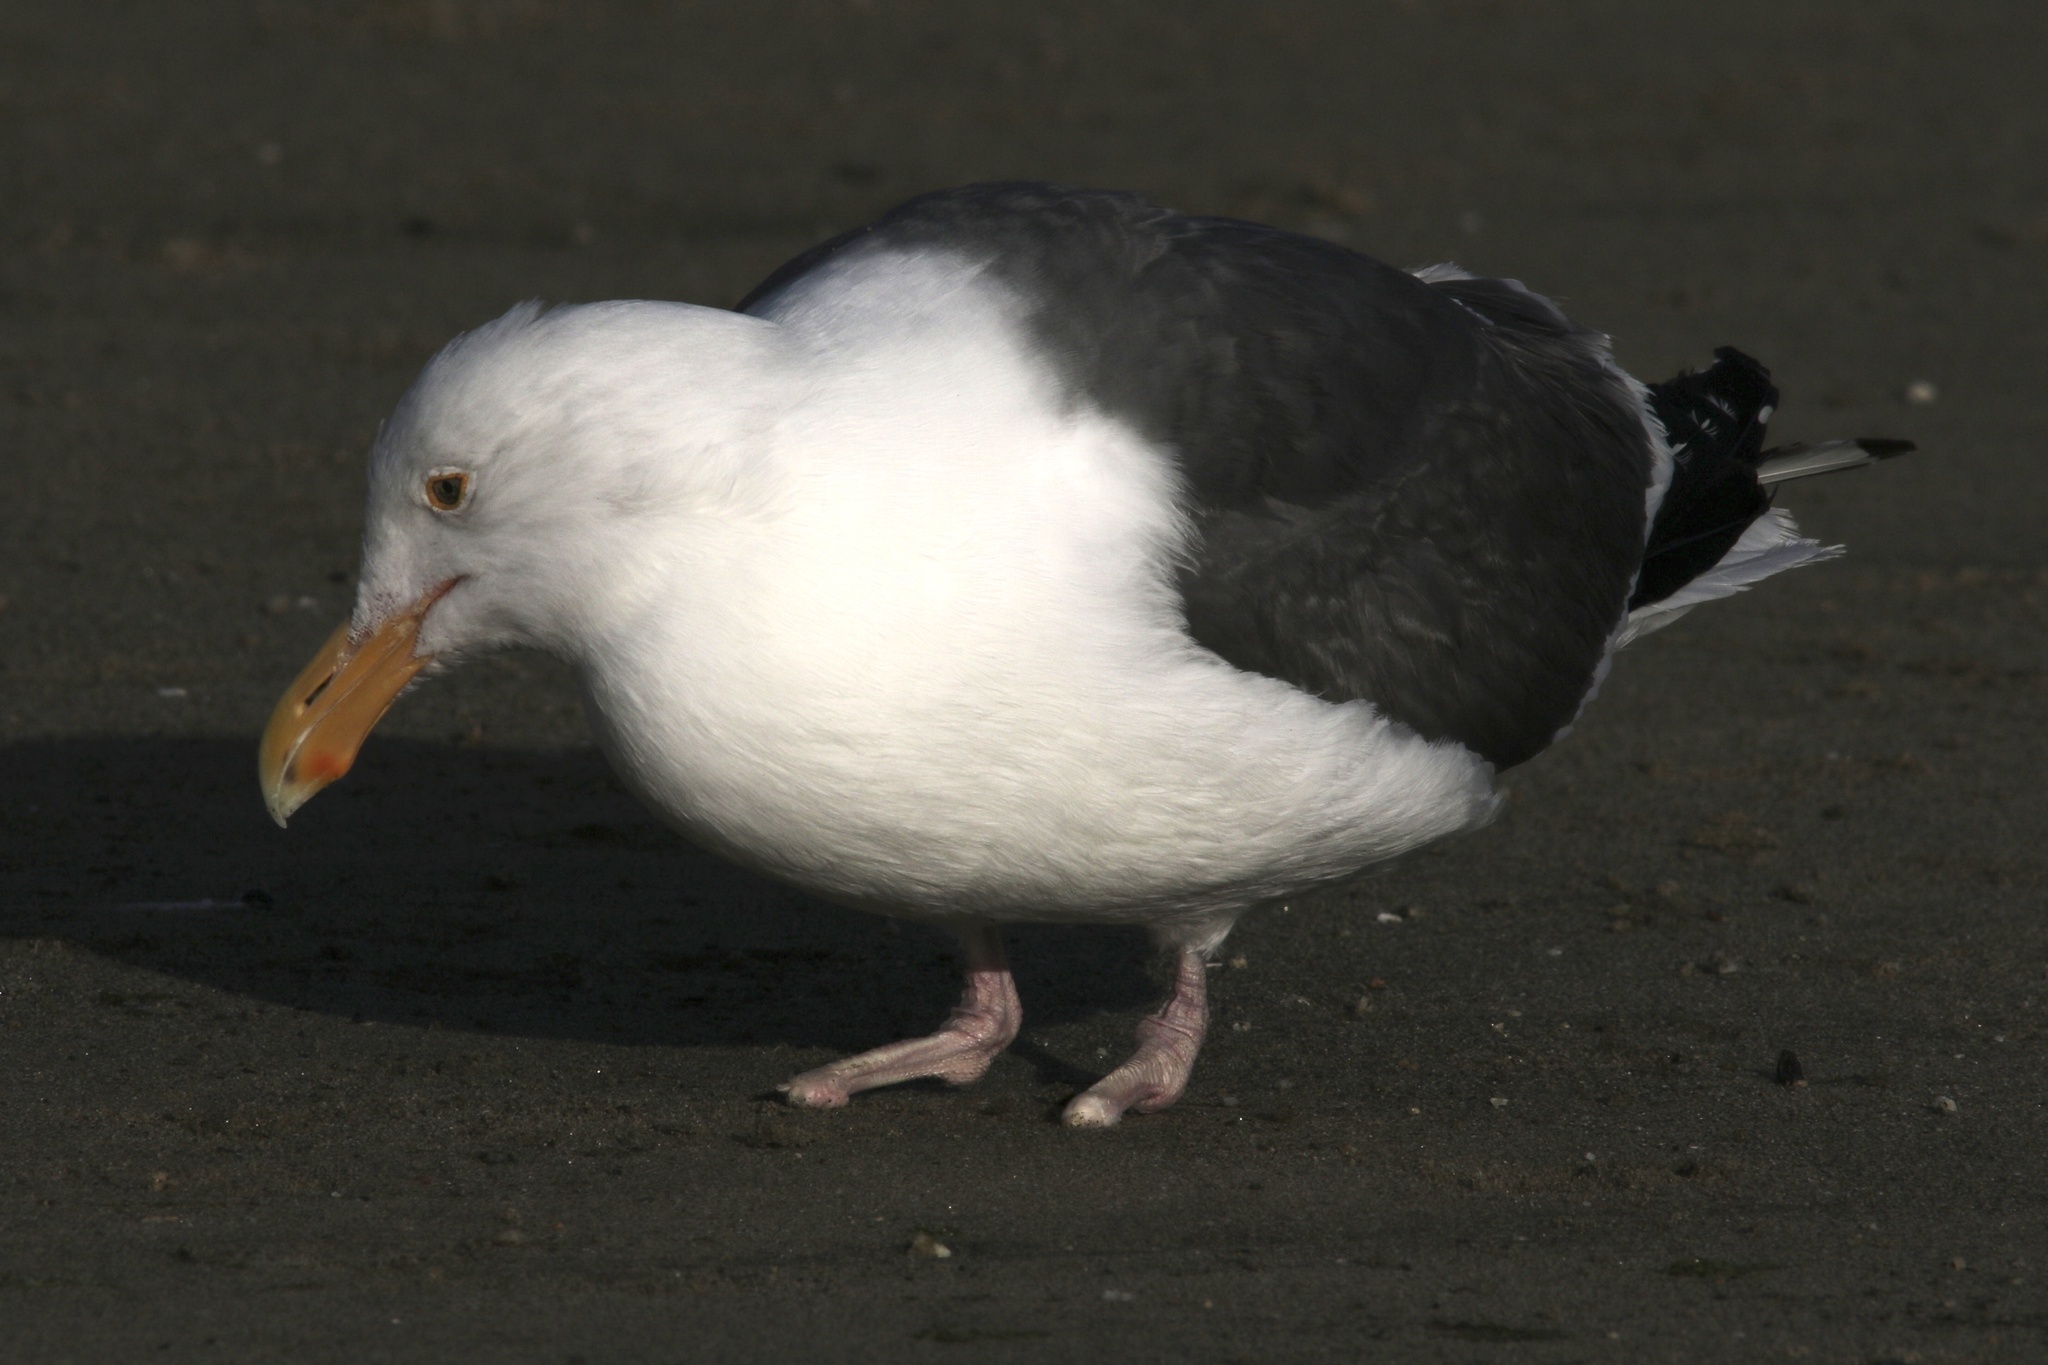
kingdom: Animalia
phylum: Chordata
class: Aves
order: Charadriiformes
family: Laridae
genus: Larus
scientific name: Larus occidentalis
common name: Western gull
